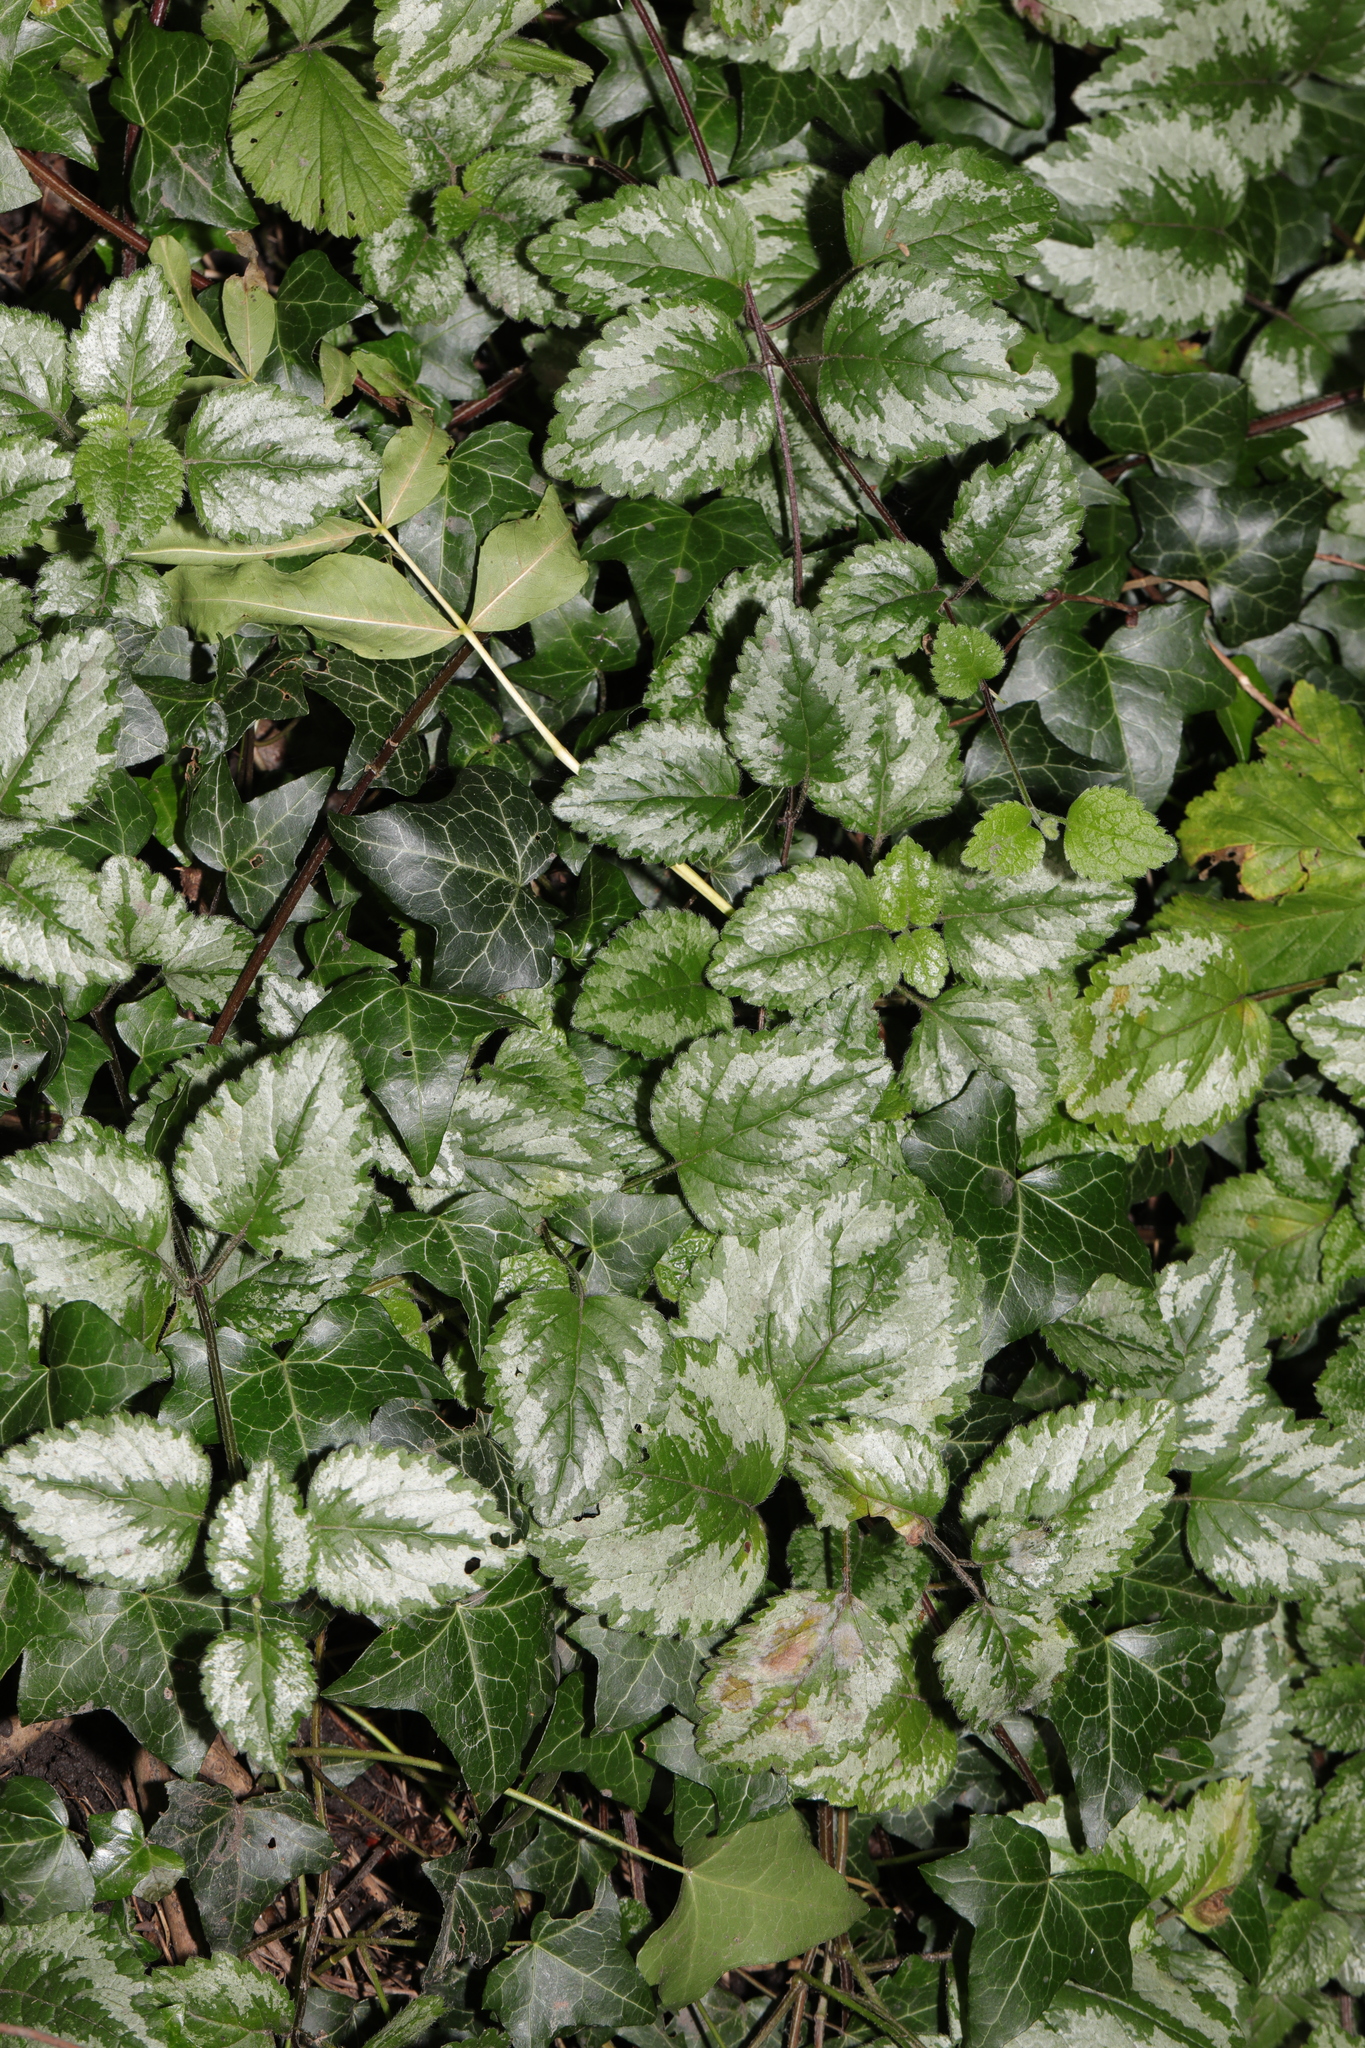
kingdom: Plantae
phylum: Tracheophyta
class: Magnoliopsida
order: Lamiales
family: Lamiaceae
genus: Lamium
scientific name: Lamium galeobdolon
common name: Yellow archangel
